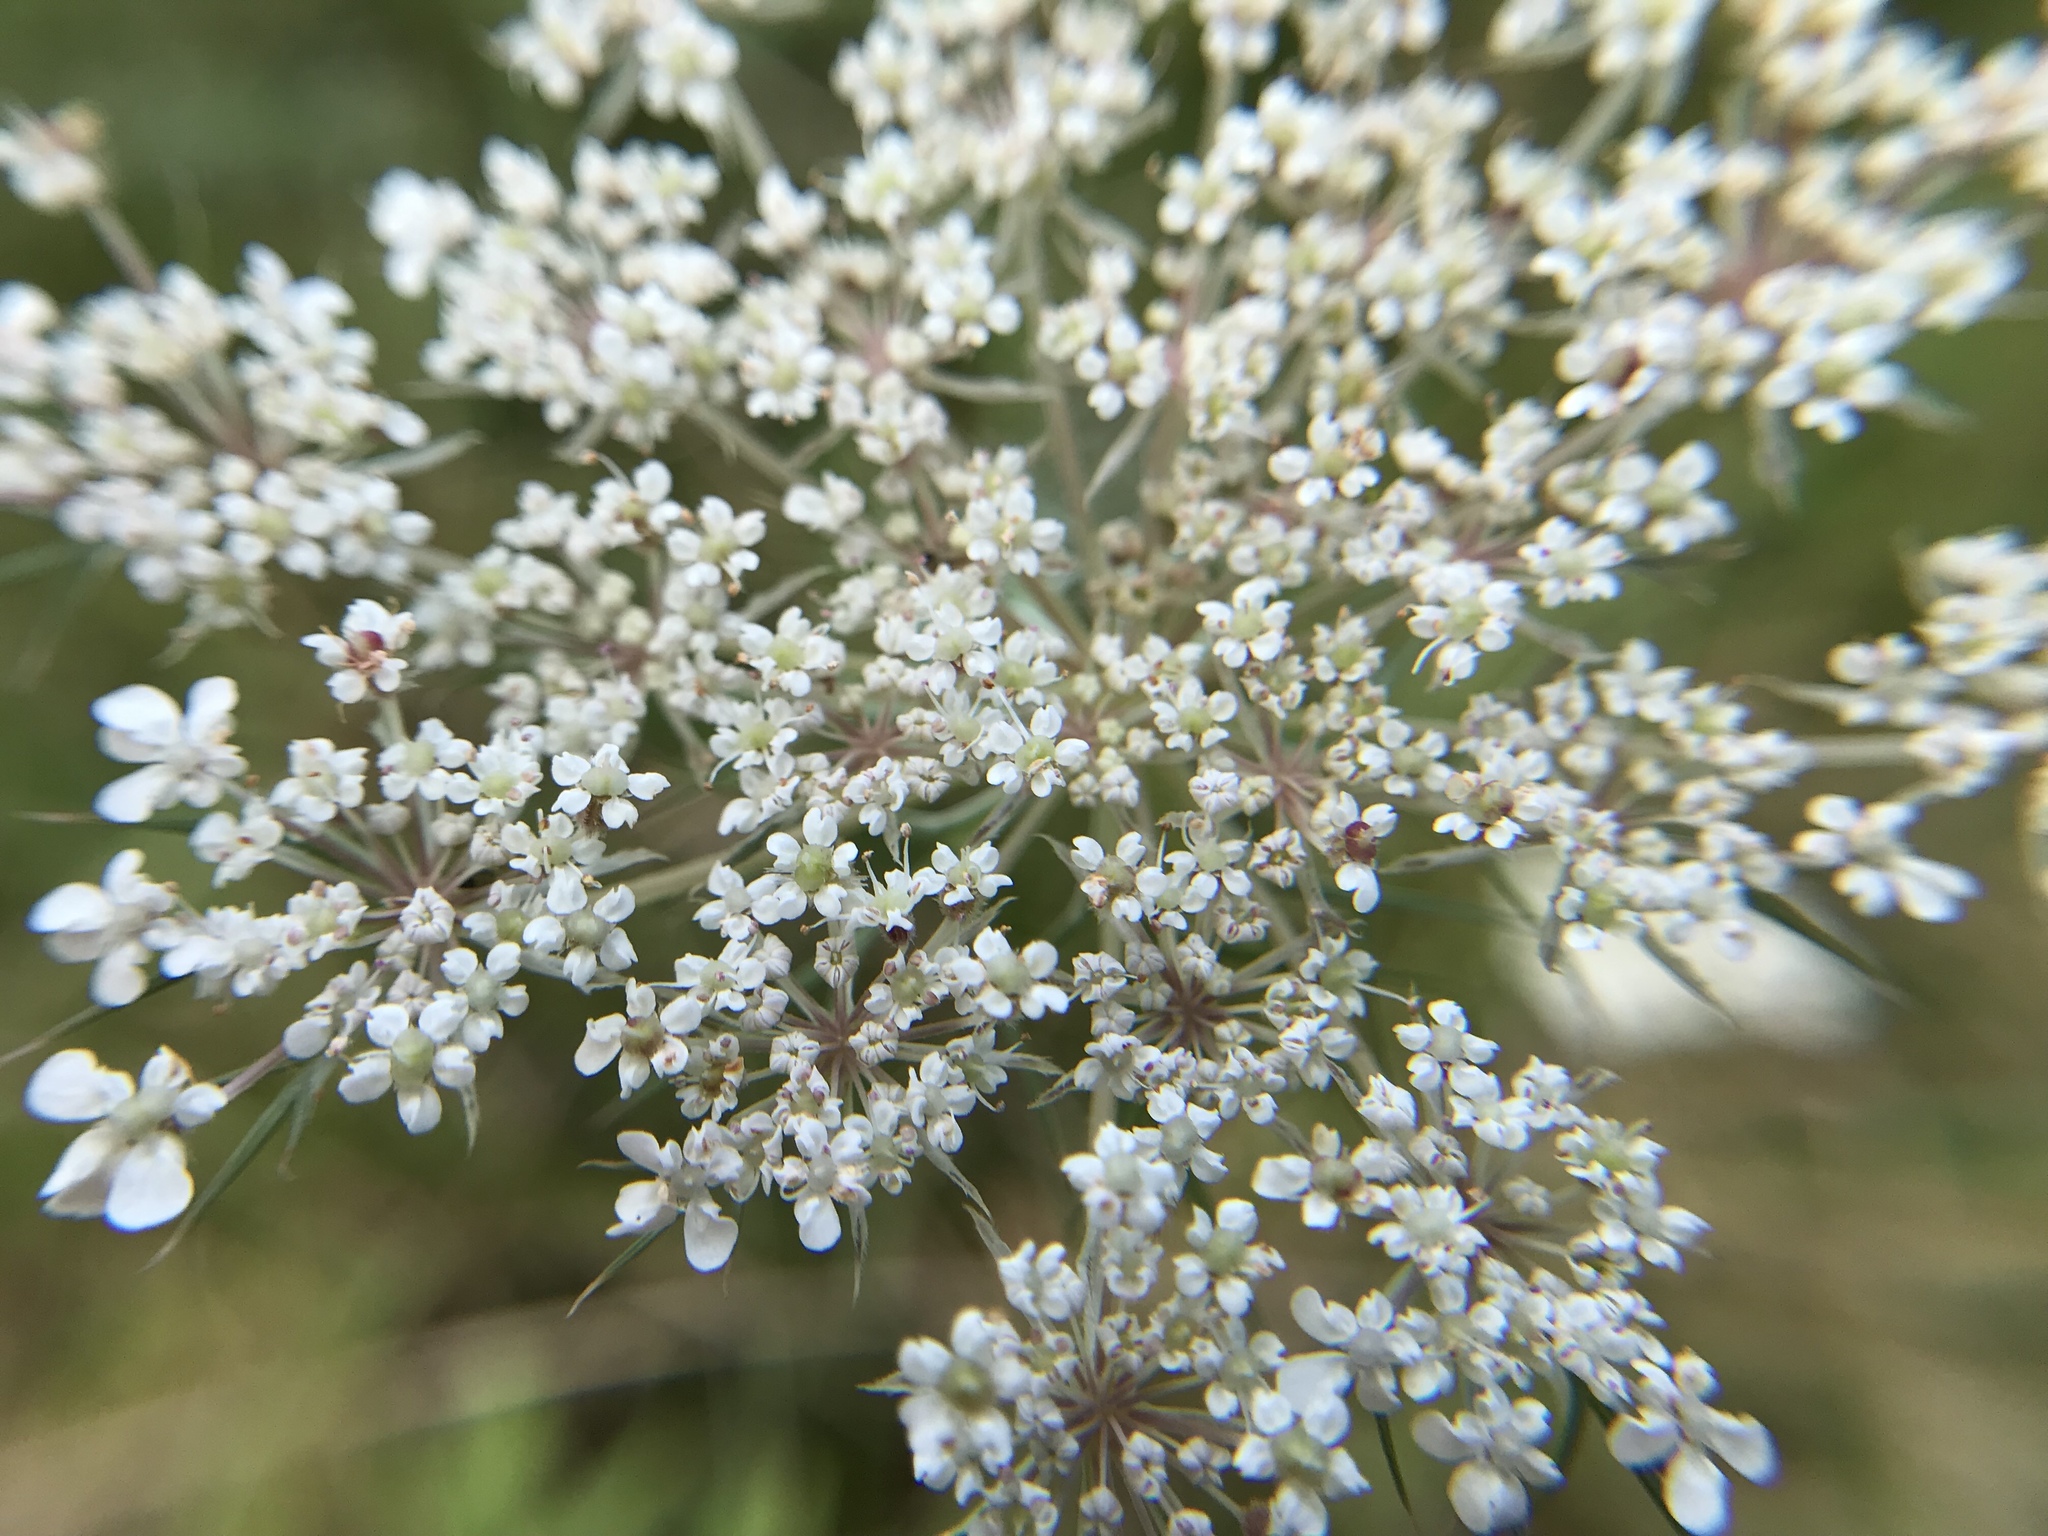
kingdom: Plantae
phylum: Tracheophyta
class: Magnoliopsida
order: Apiales
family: Apiaceae
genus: Daucus
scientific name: Daucus carota
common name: Wild carrot
